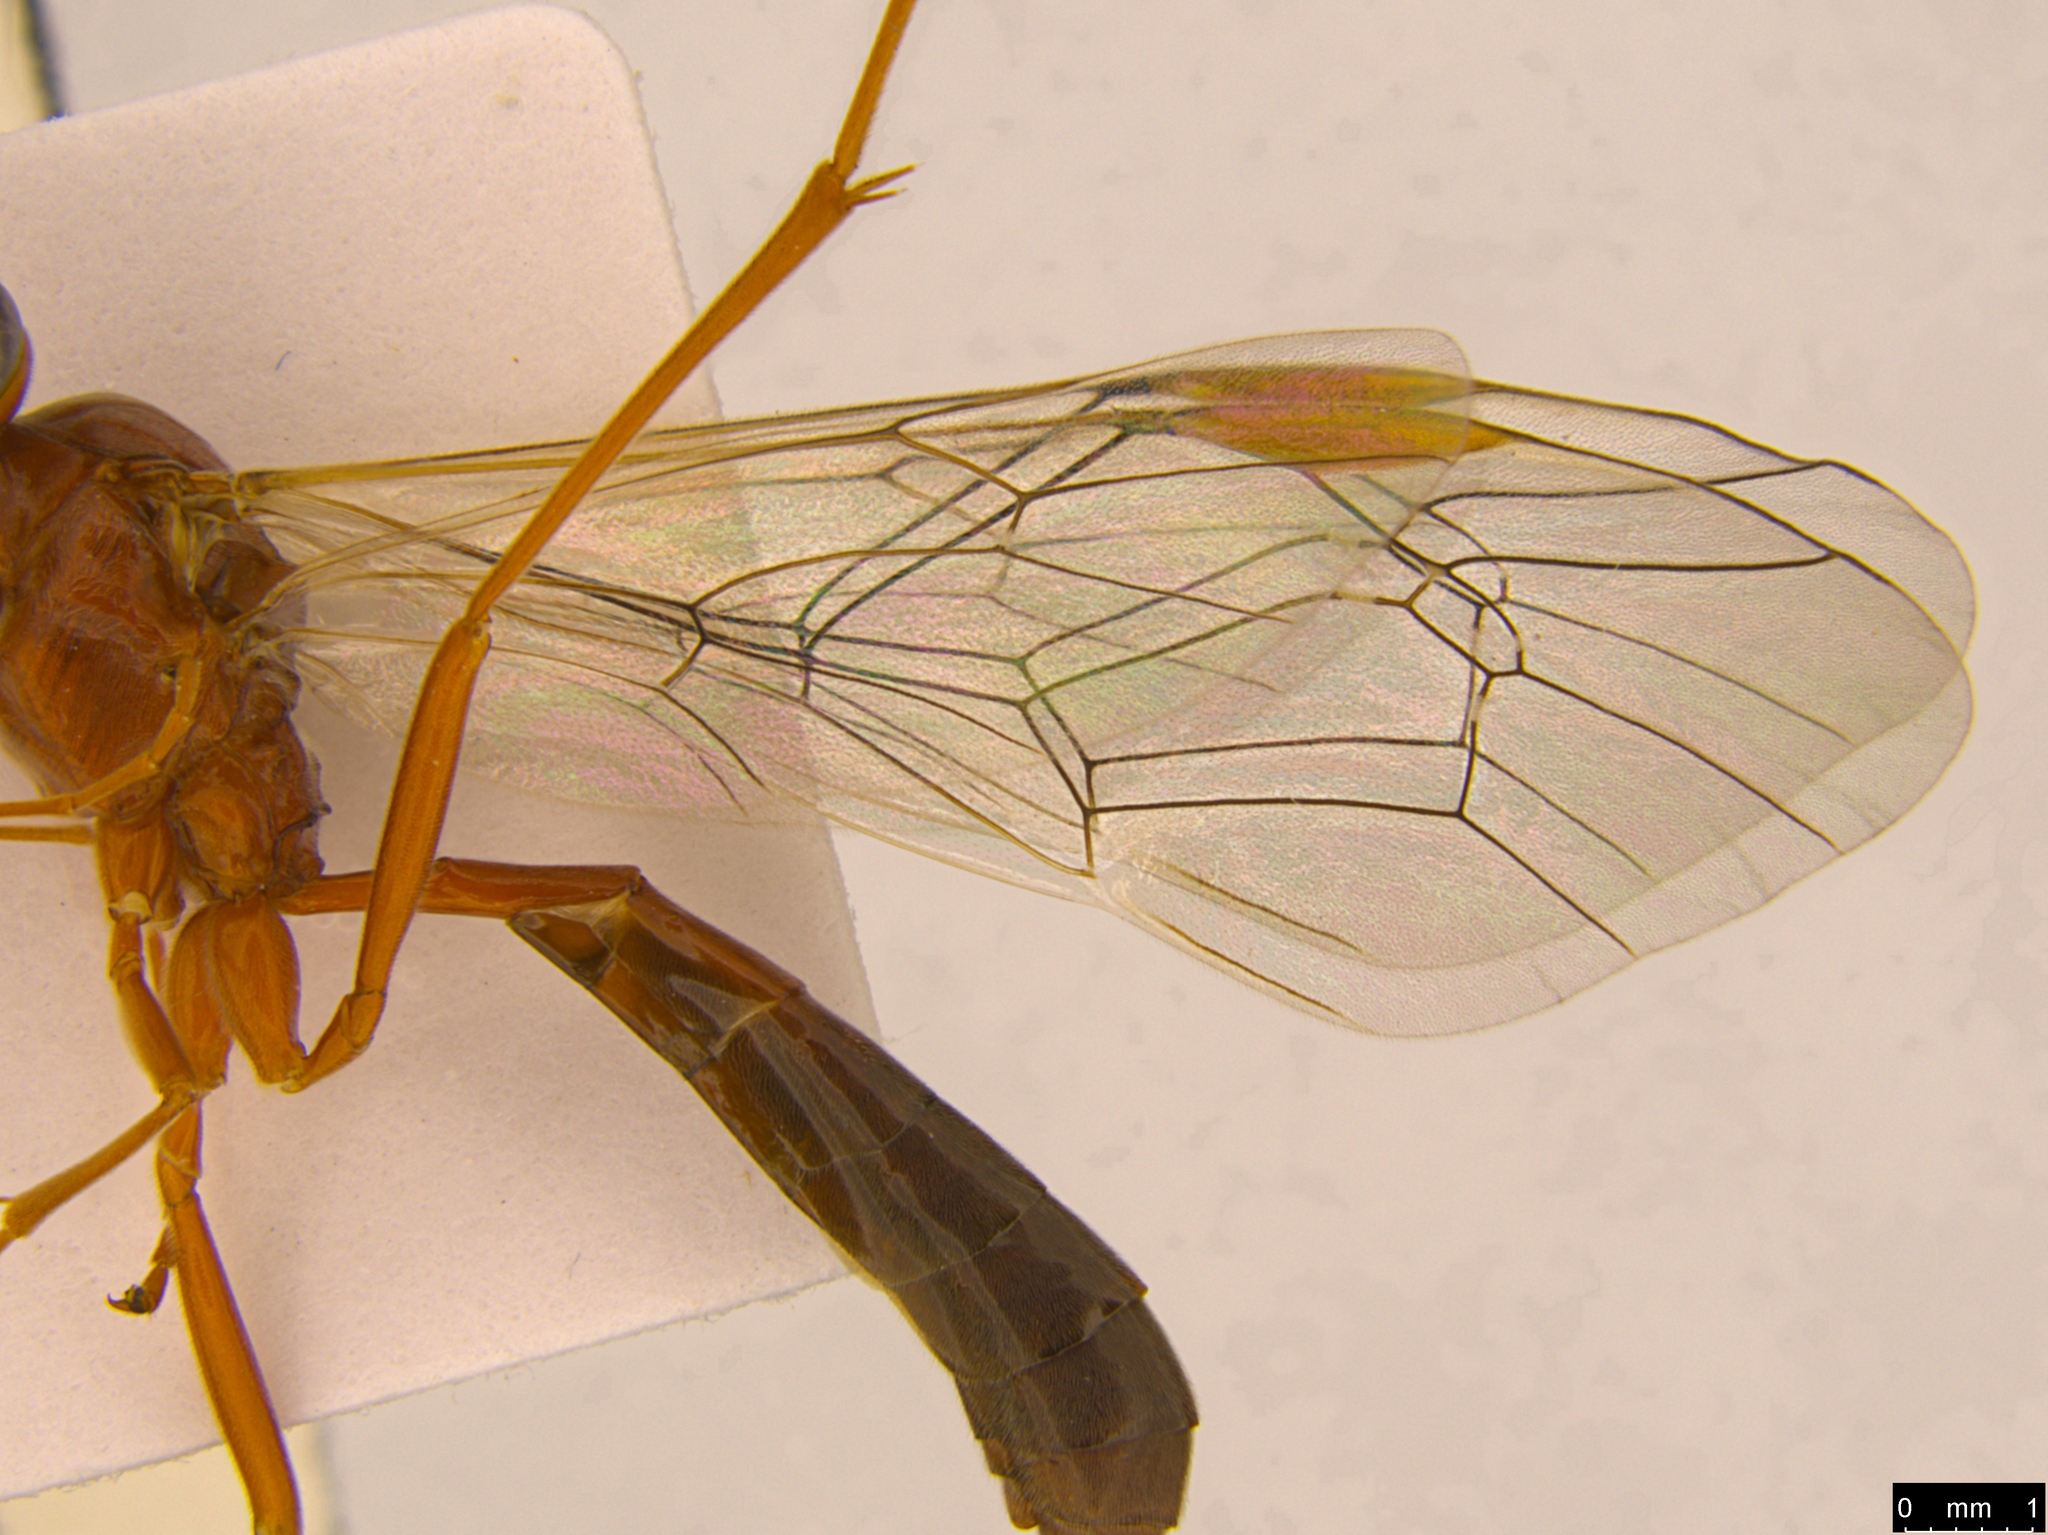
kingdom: Animalia
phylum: Arthropoda
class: Insecta
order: Hymenoptera
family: Ichneumonidae
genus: Megaceria
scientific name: Megaceria pagana
